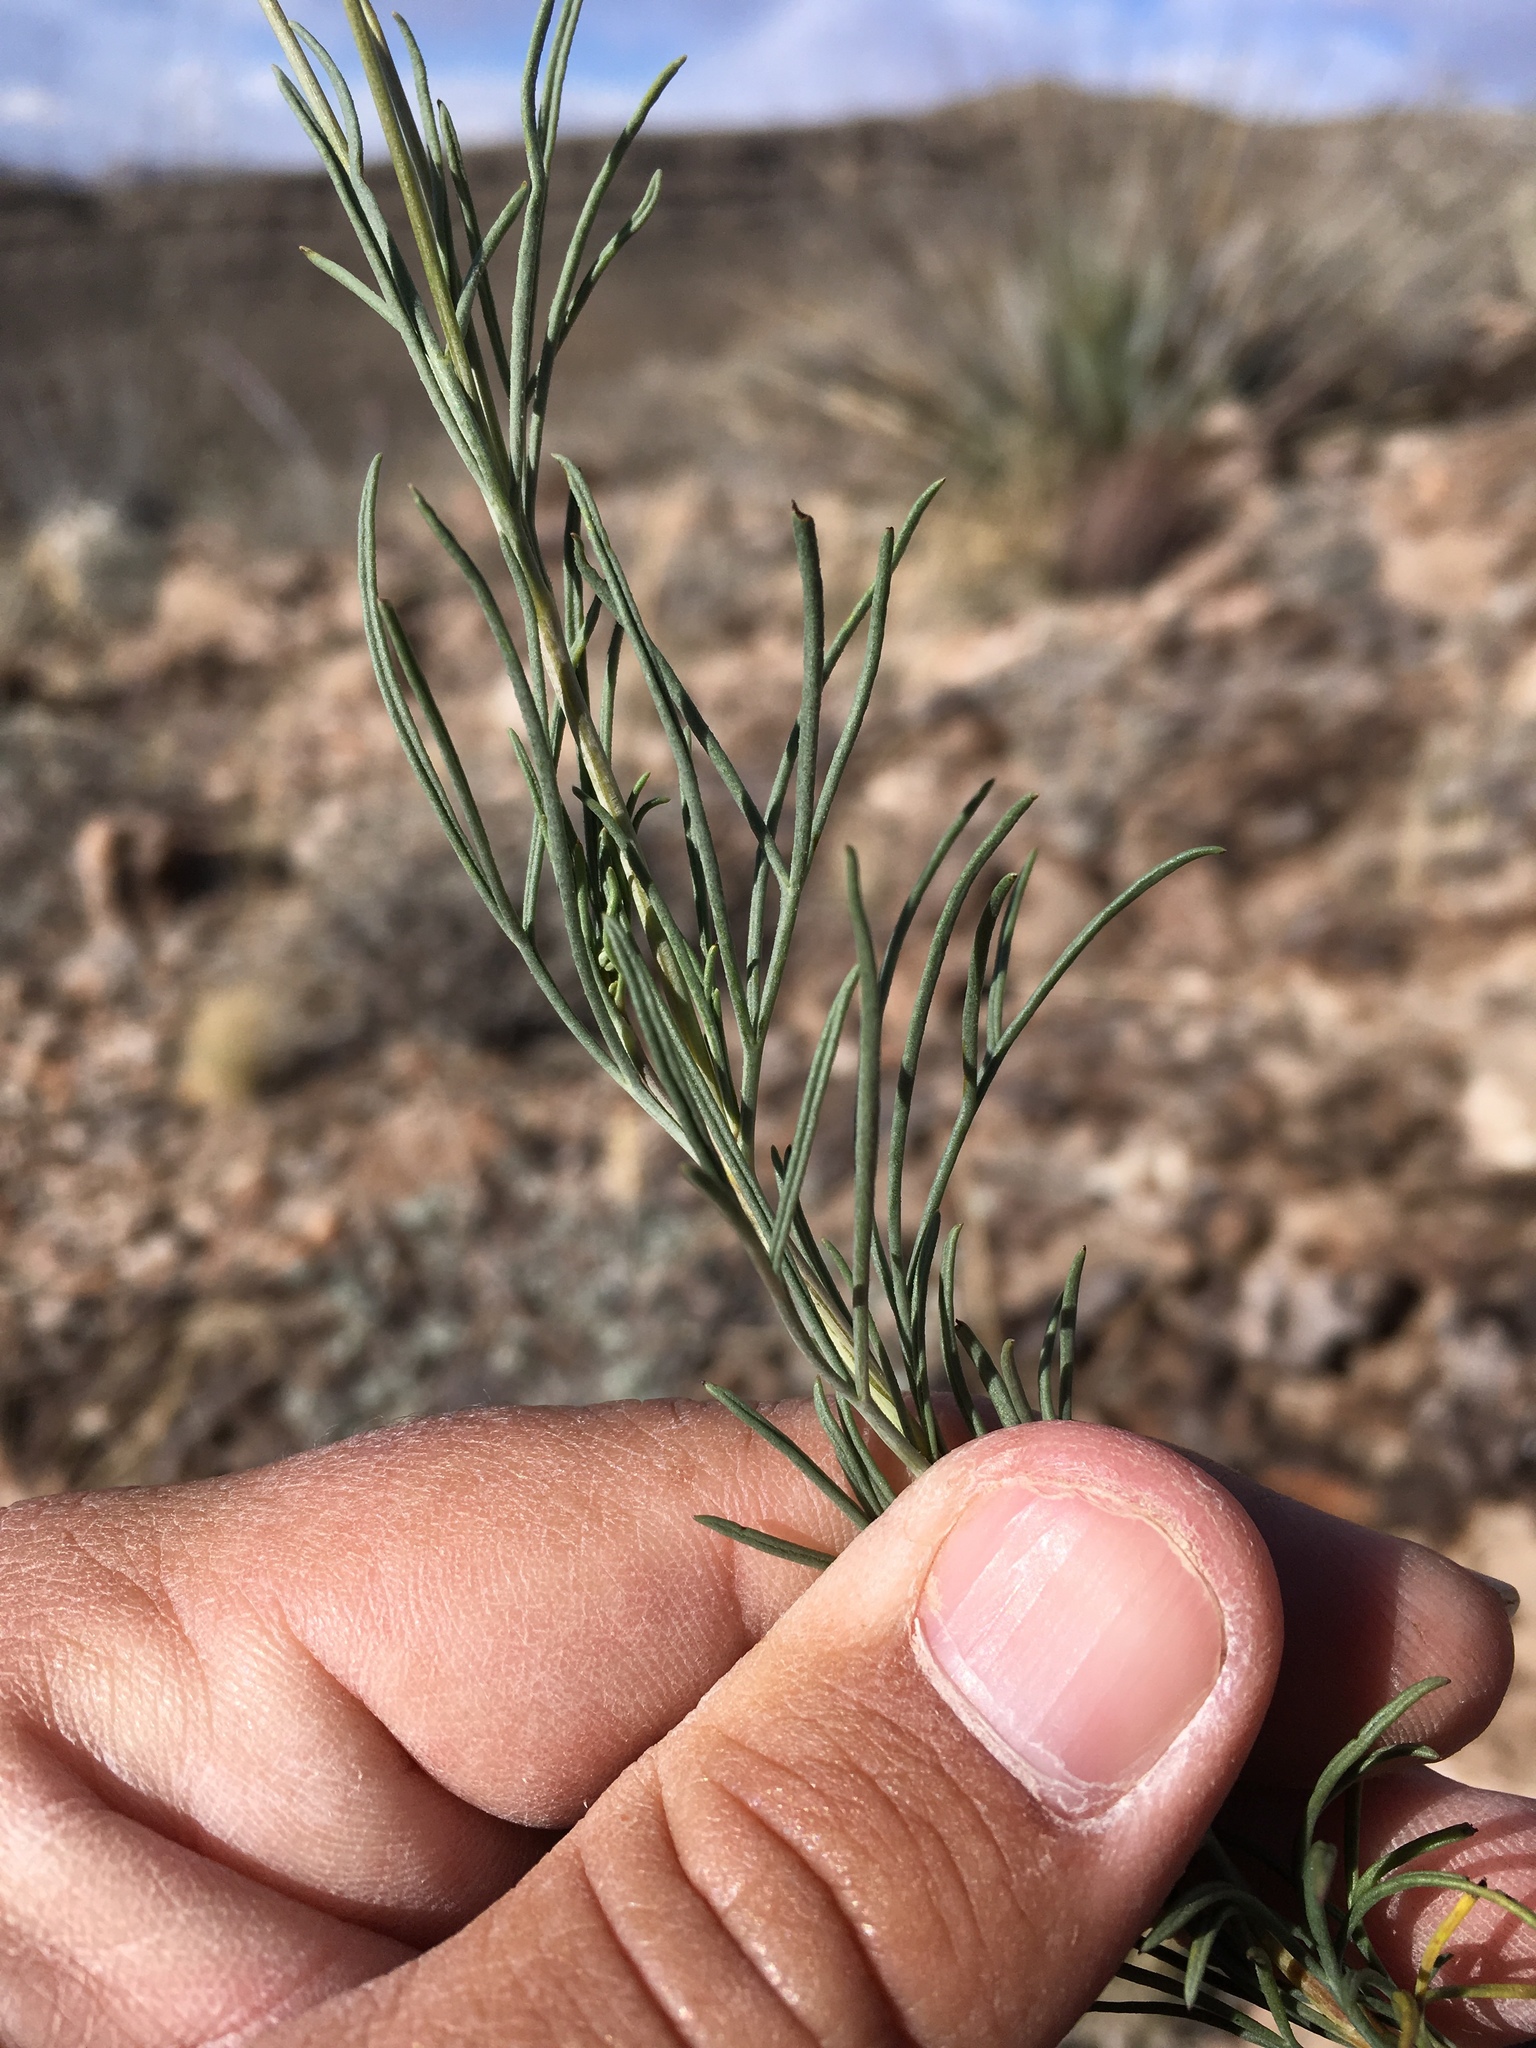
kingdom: Plantae
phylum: Tracheophyta
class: Magnoliopsida
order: Asterales
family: Asteraceae
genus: Thelesperma
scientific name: Thelesperma longipes
